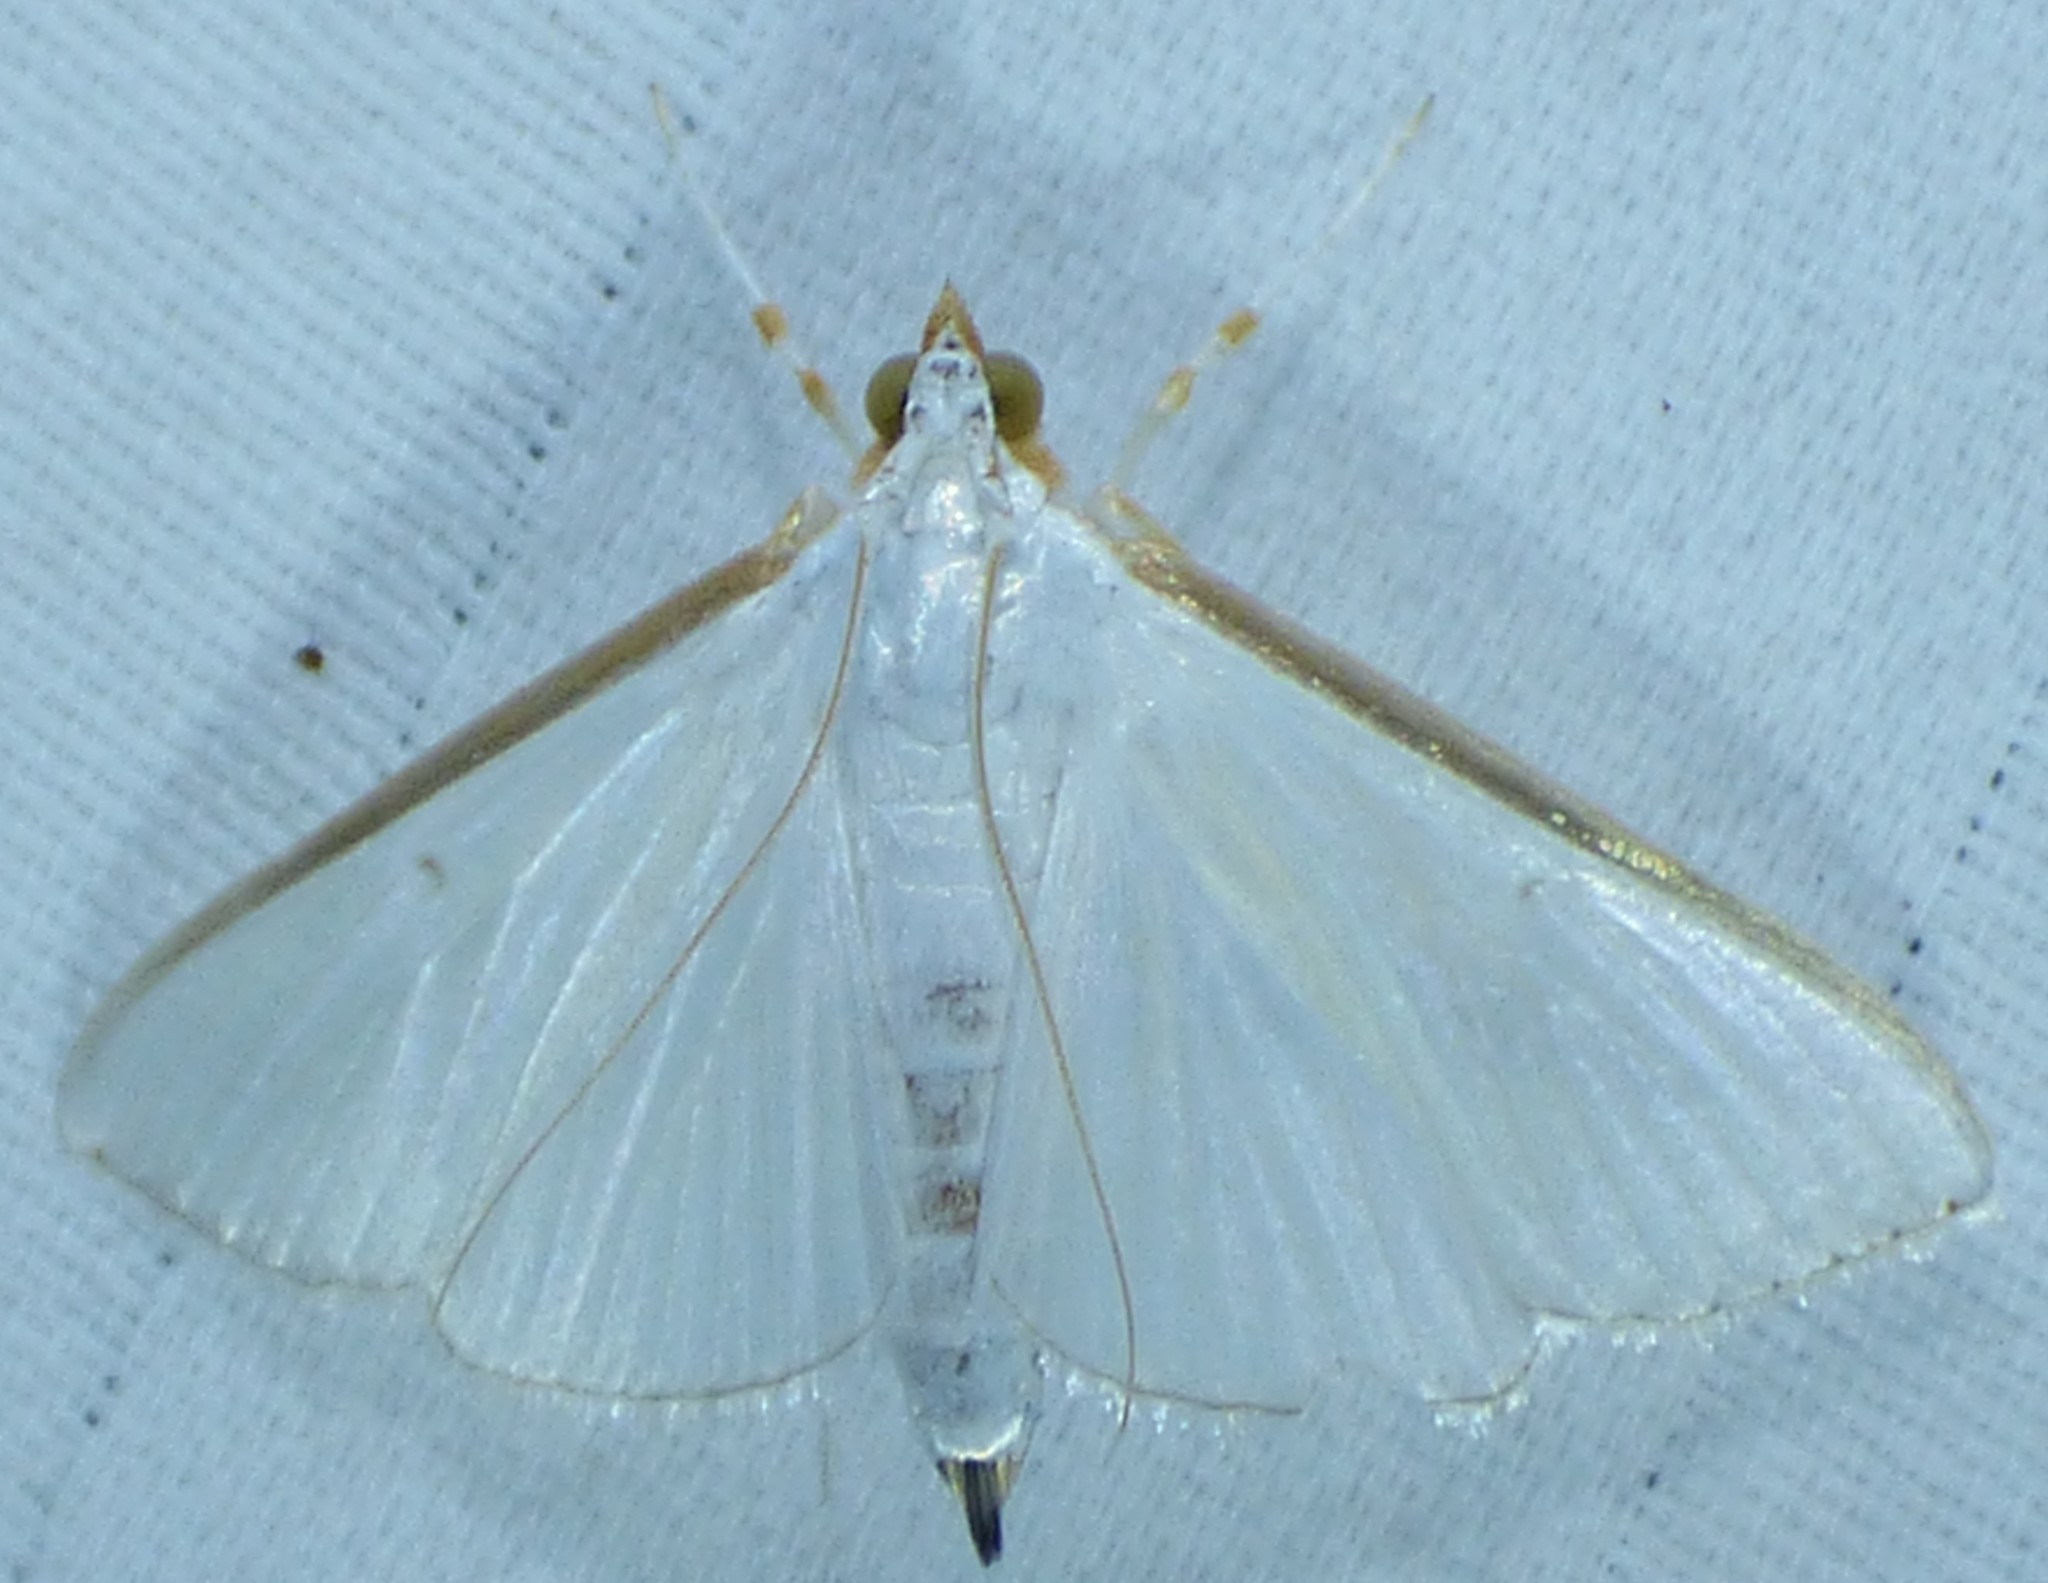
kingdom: Animalia
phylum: Arthropoda
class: Insecta
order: Lepidoptera
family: Crambidae
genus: Diaphania
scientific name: Diaphania costata
